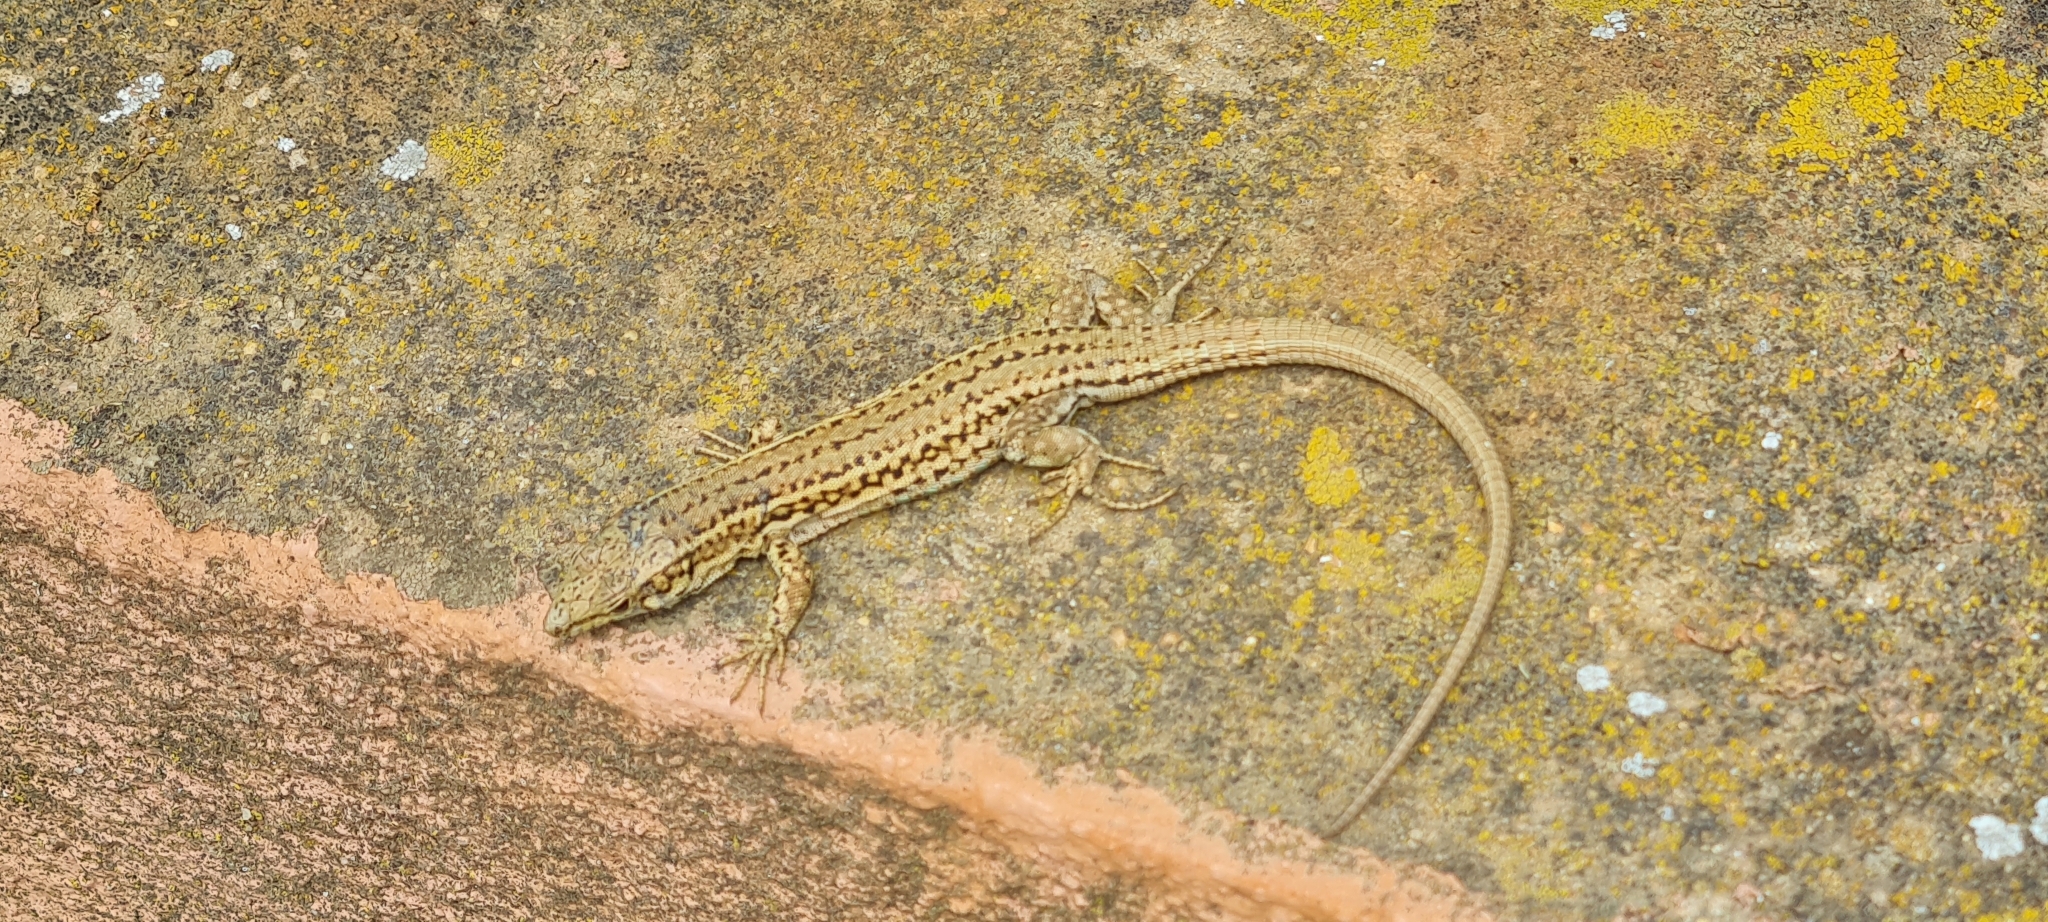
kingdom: Animalia
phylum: Chordata
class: Squamata
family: Lacertidae
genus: Podarcis
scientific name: Podarcis liolepis
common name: Catalonian wall lizard
